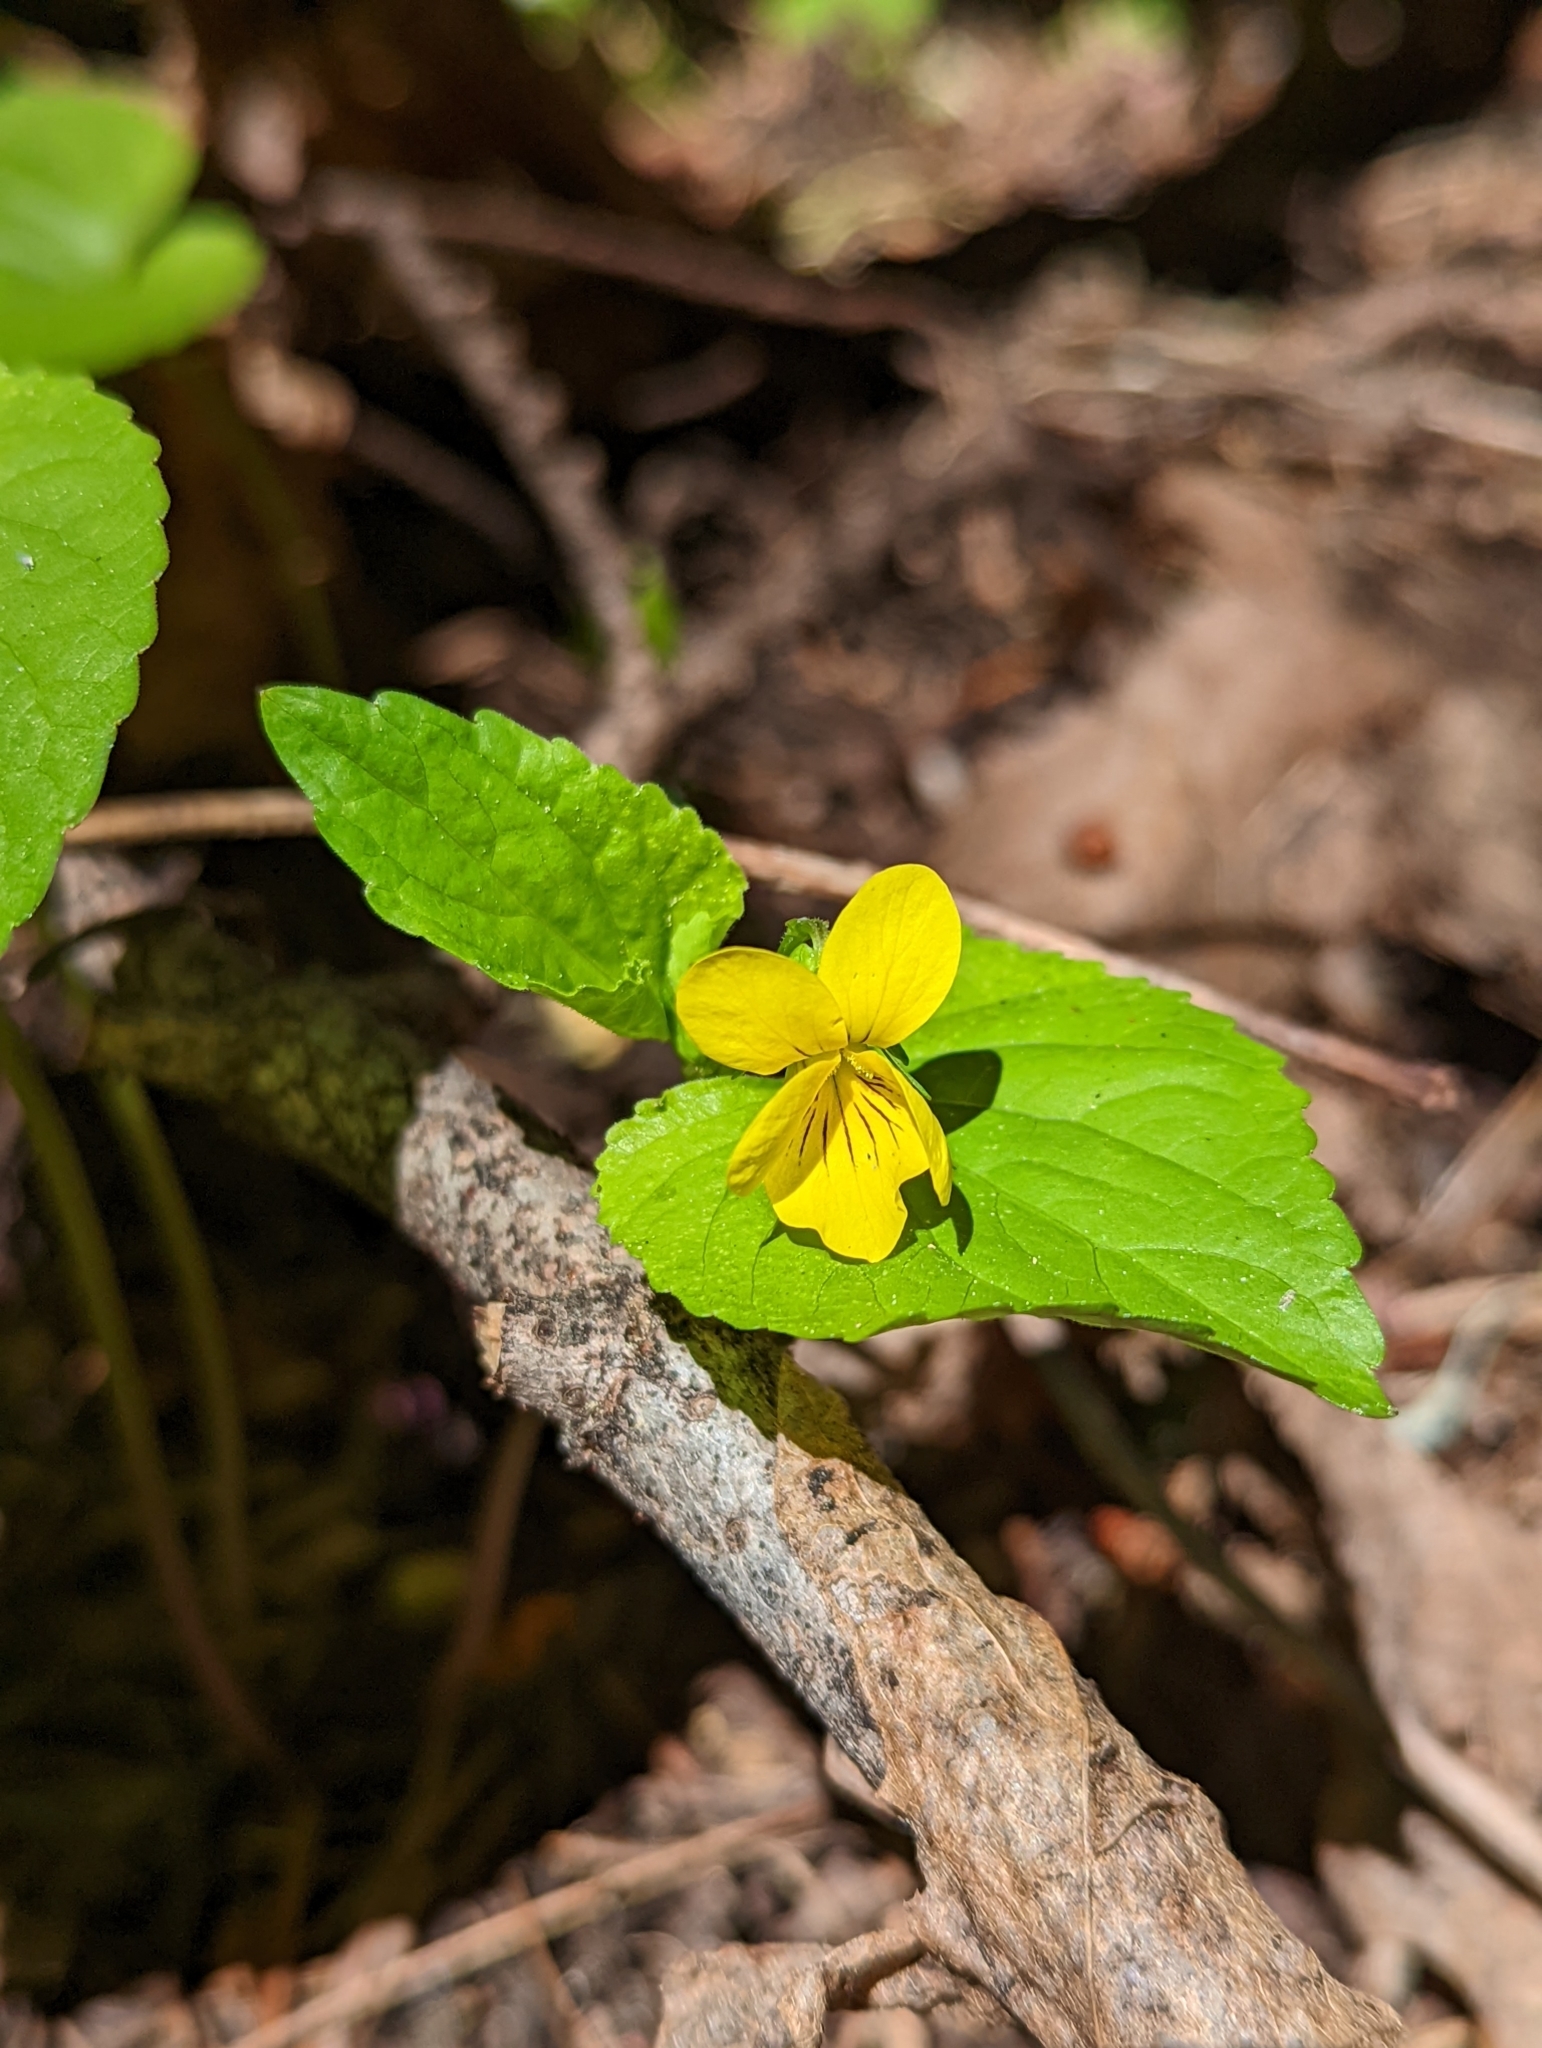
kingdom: Plantae
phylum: Tracheophyta
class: Magnoliopsida
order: Malpighiales
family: Violaceae
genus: Viola
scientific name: Viola glabella
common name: Stream violet
